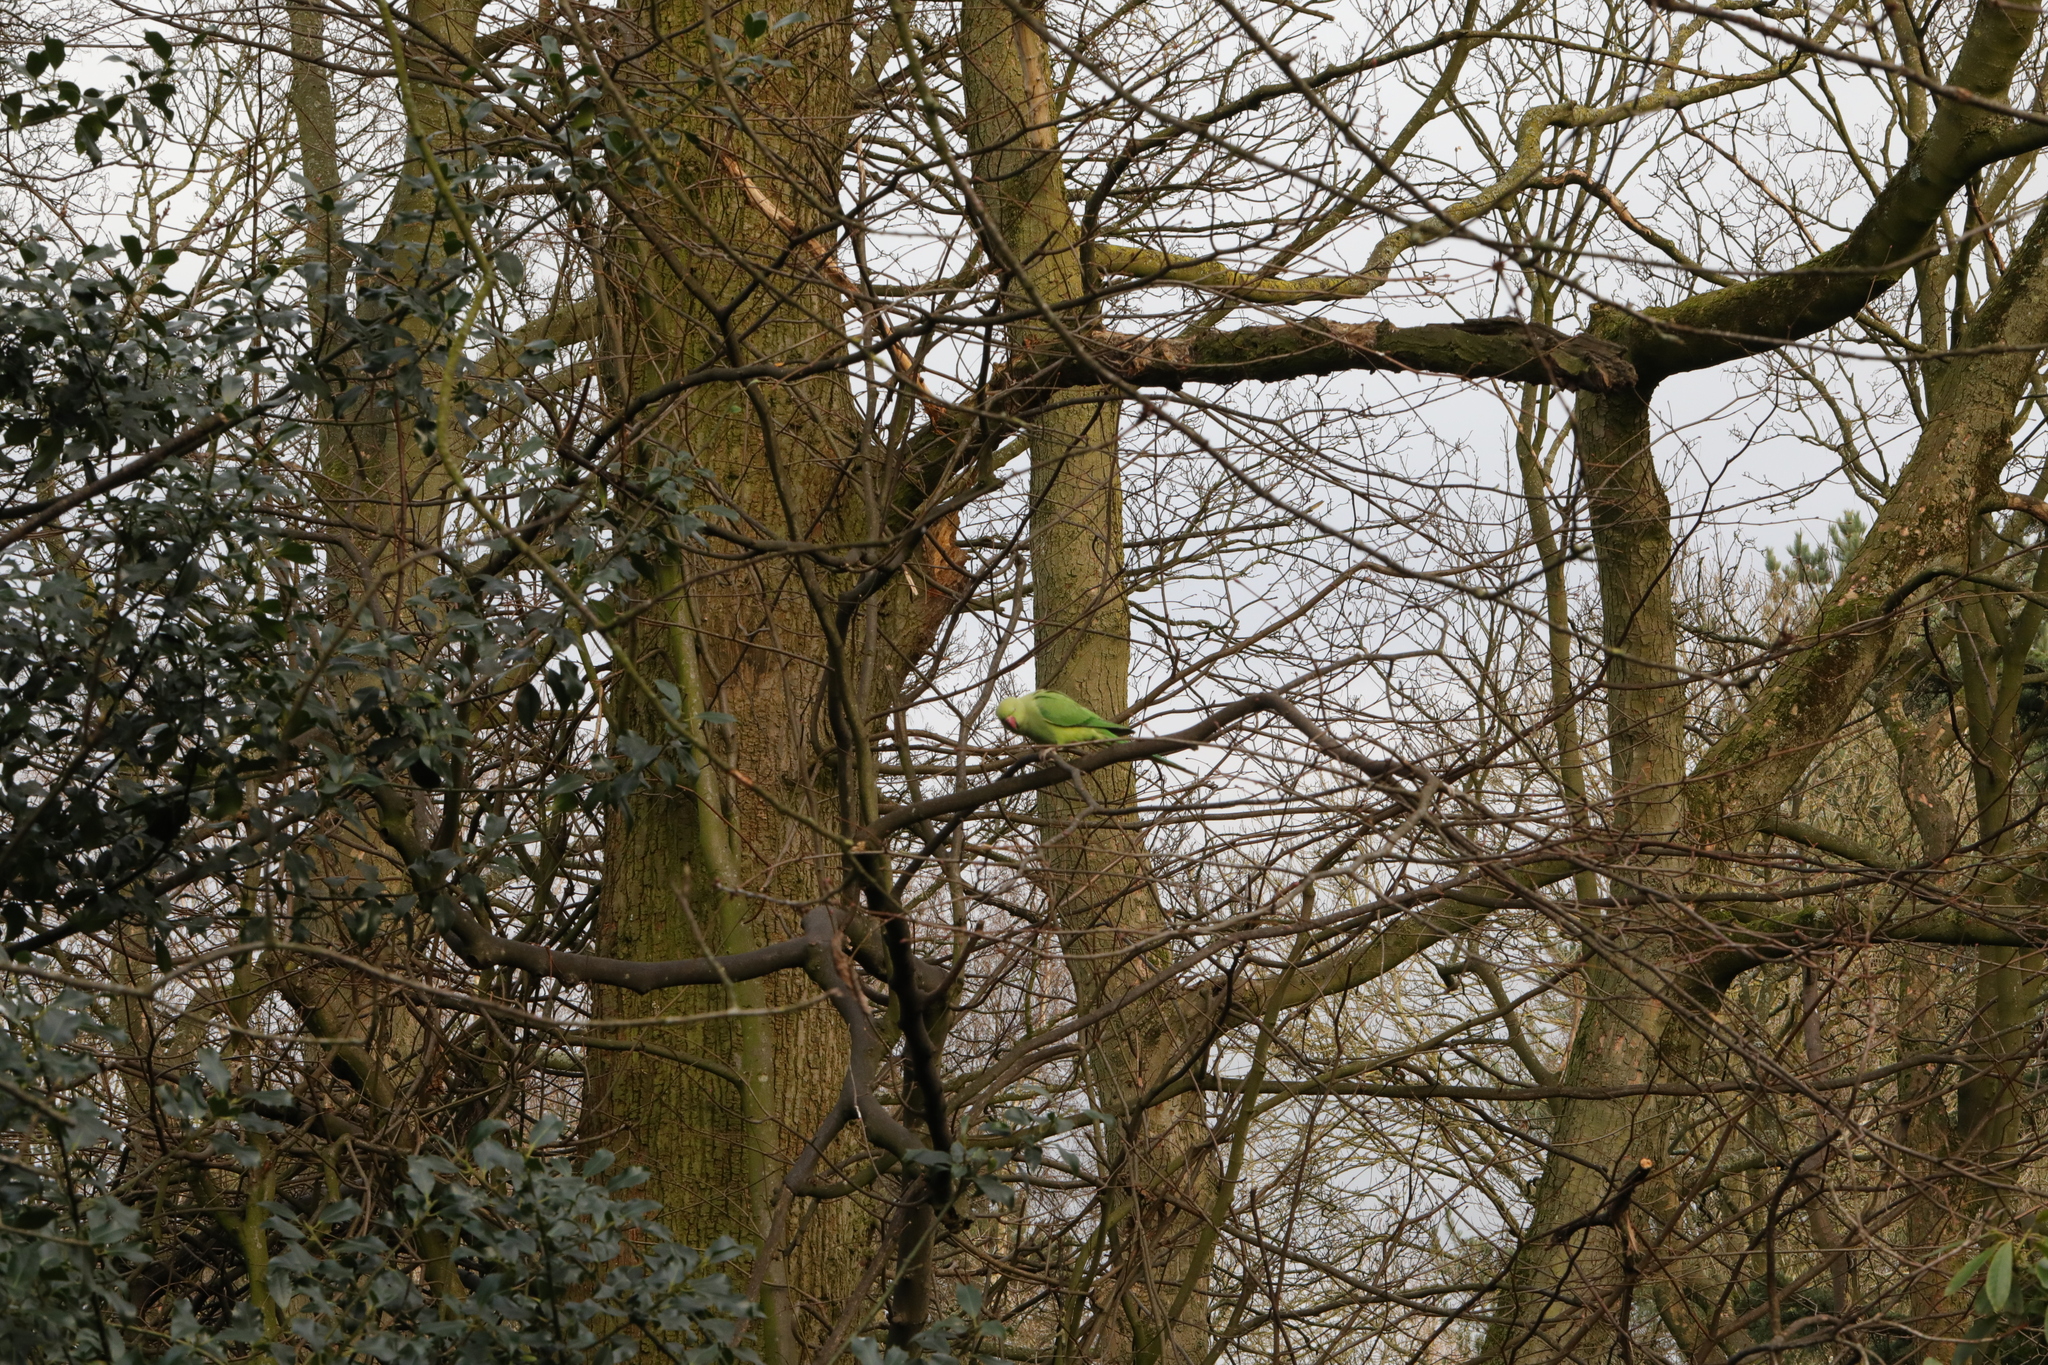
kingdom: Animalia
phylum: Chordata
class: Aves
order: Psittaciformes
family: Psittacidae
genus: Psittacula
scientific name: Psittacula krameri
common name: Rose-ringed parakeet
